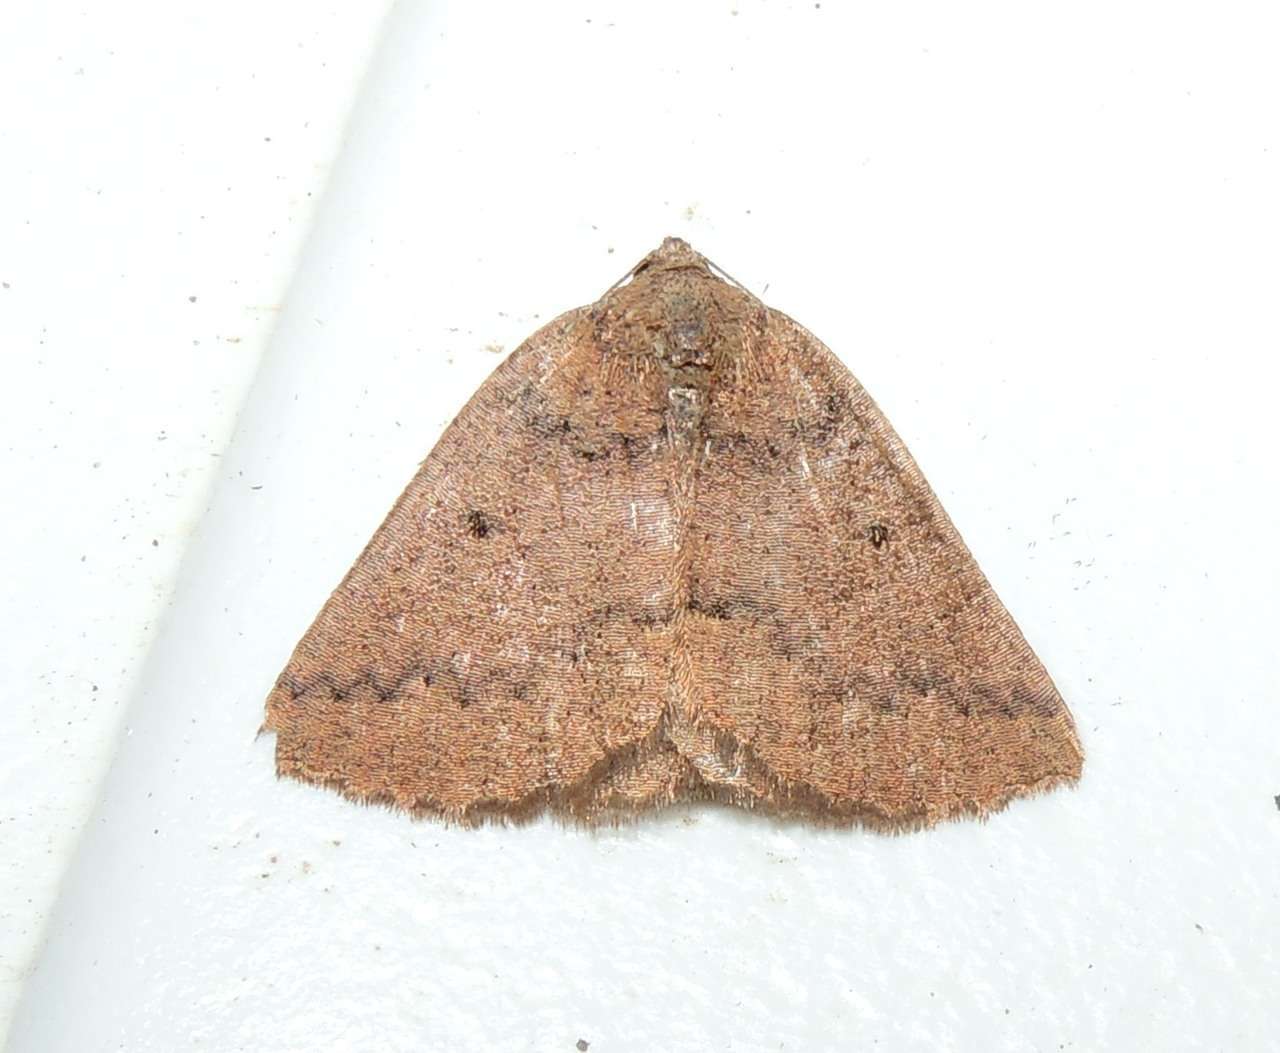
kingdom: Animalia
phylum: Arthropoda
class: Insecta
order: Lepidoptera
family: Geometridae
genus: Furcatrox
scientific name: Furcatrox furneauxi
